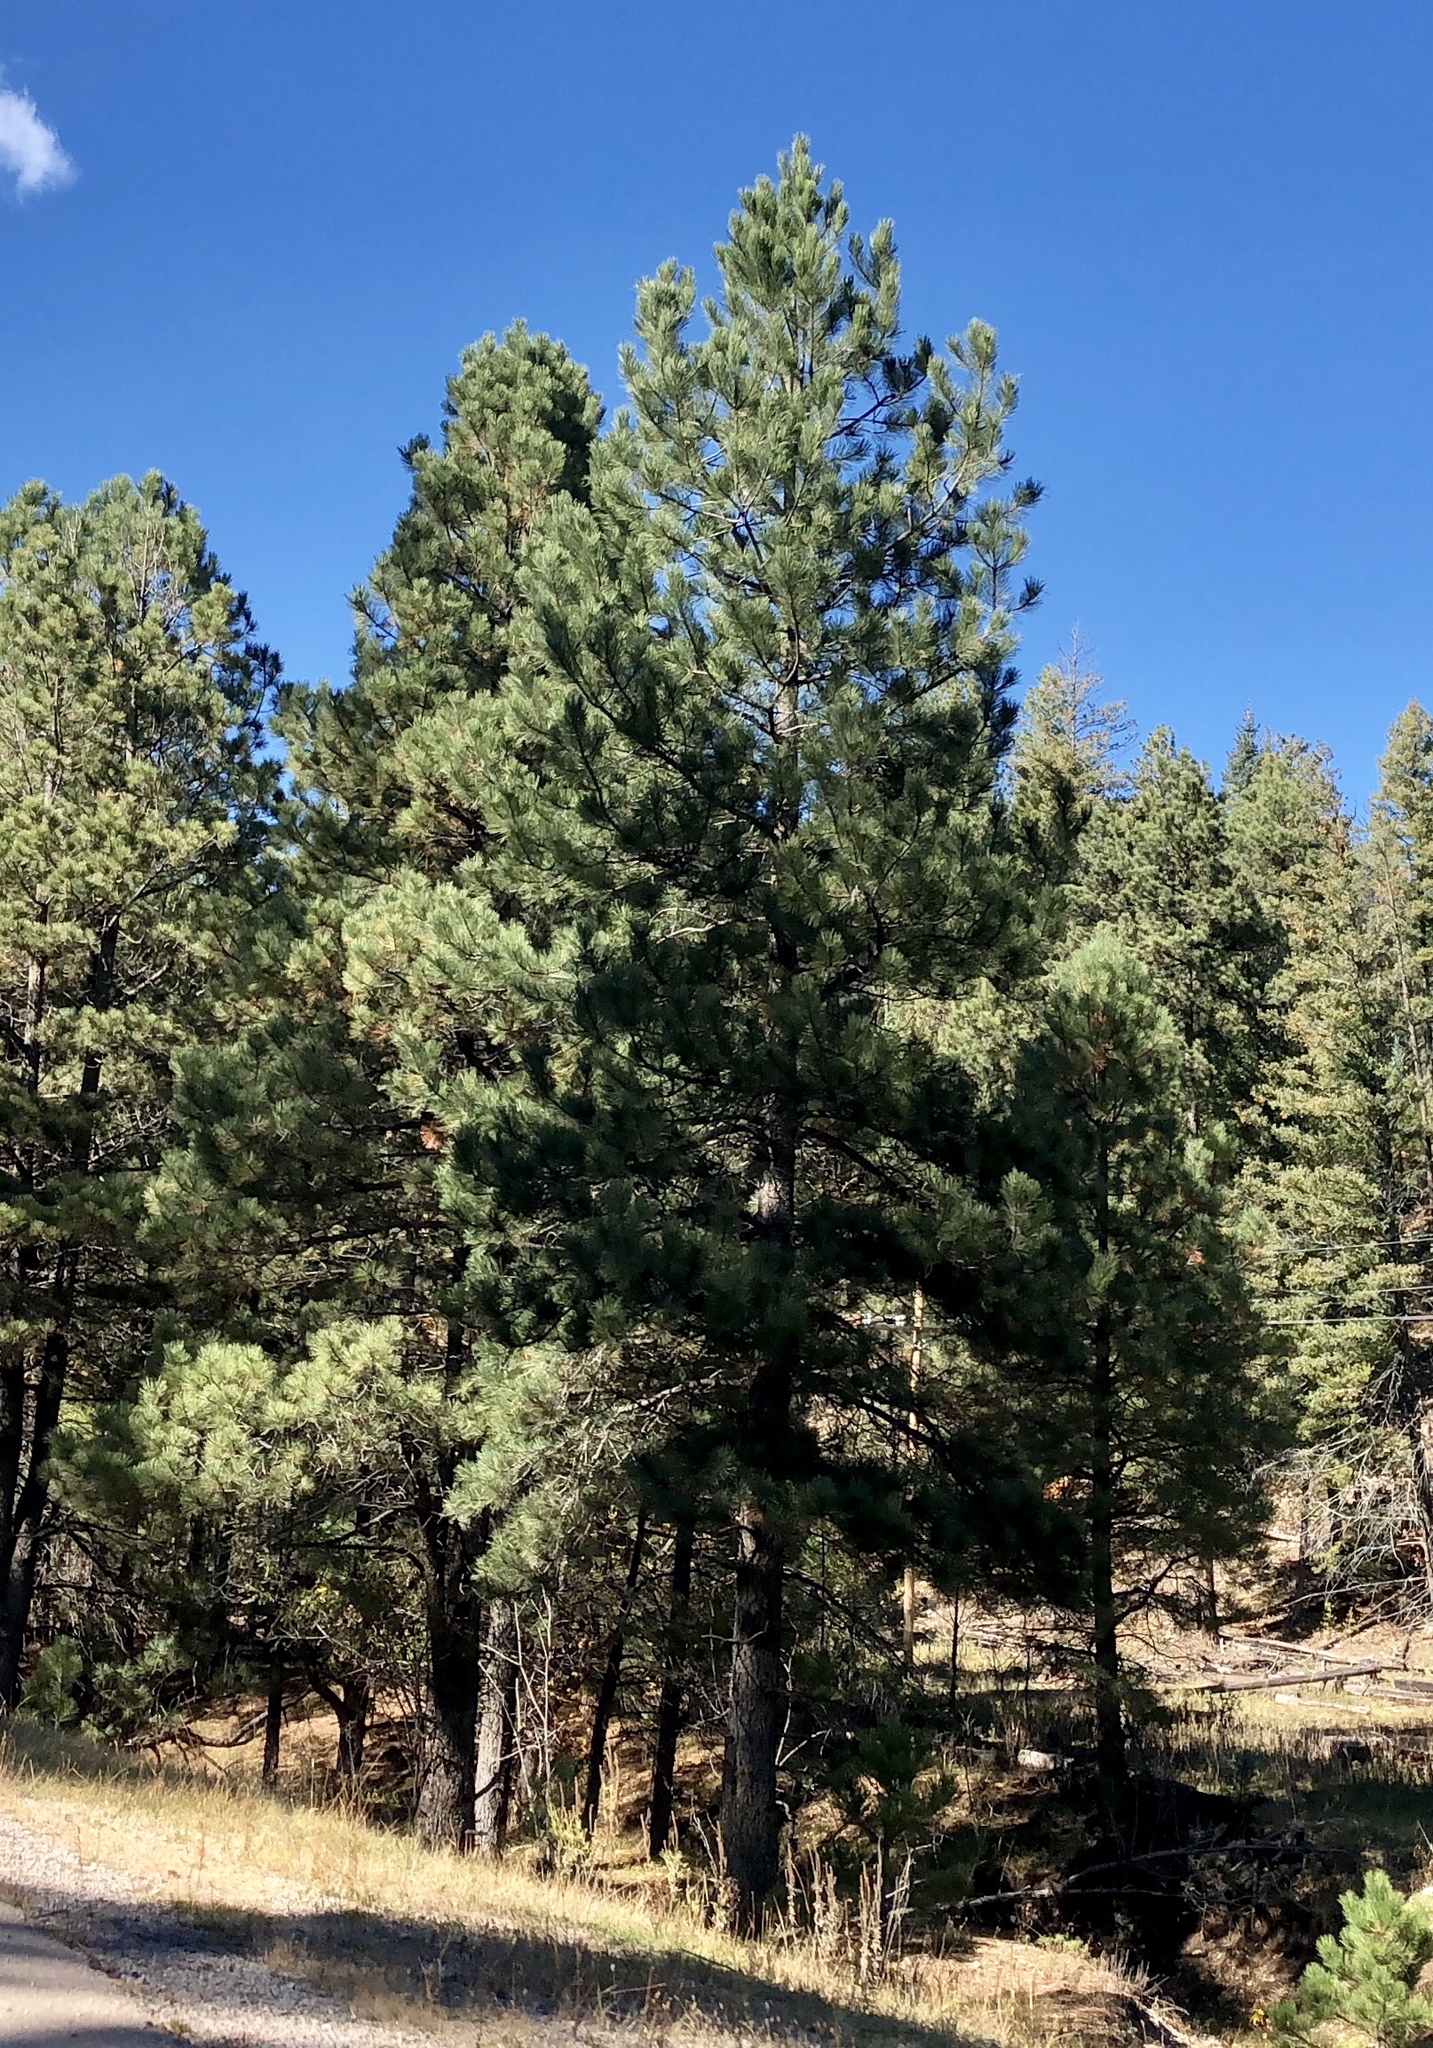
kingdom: Plantae
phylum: Tracheophyta
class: Pinopsida
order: Pinales
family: Pinaceae
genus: Pinus
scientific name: Pinus ponderosa
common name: Western yellow-pine
